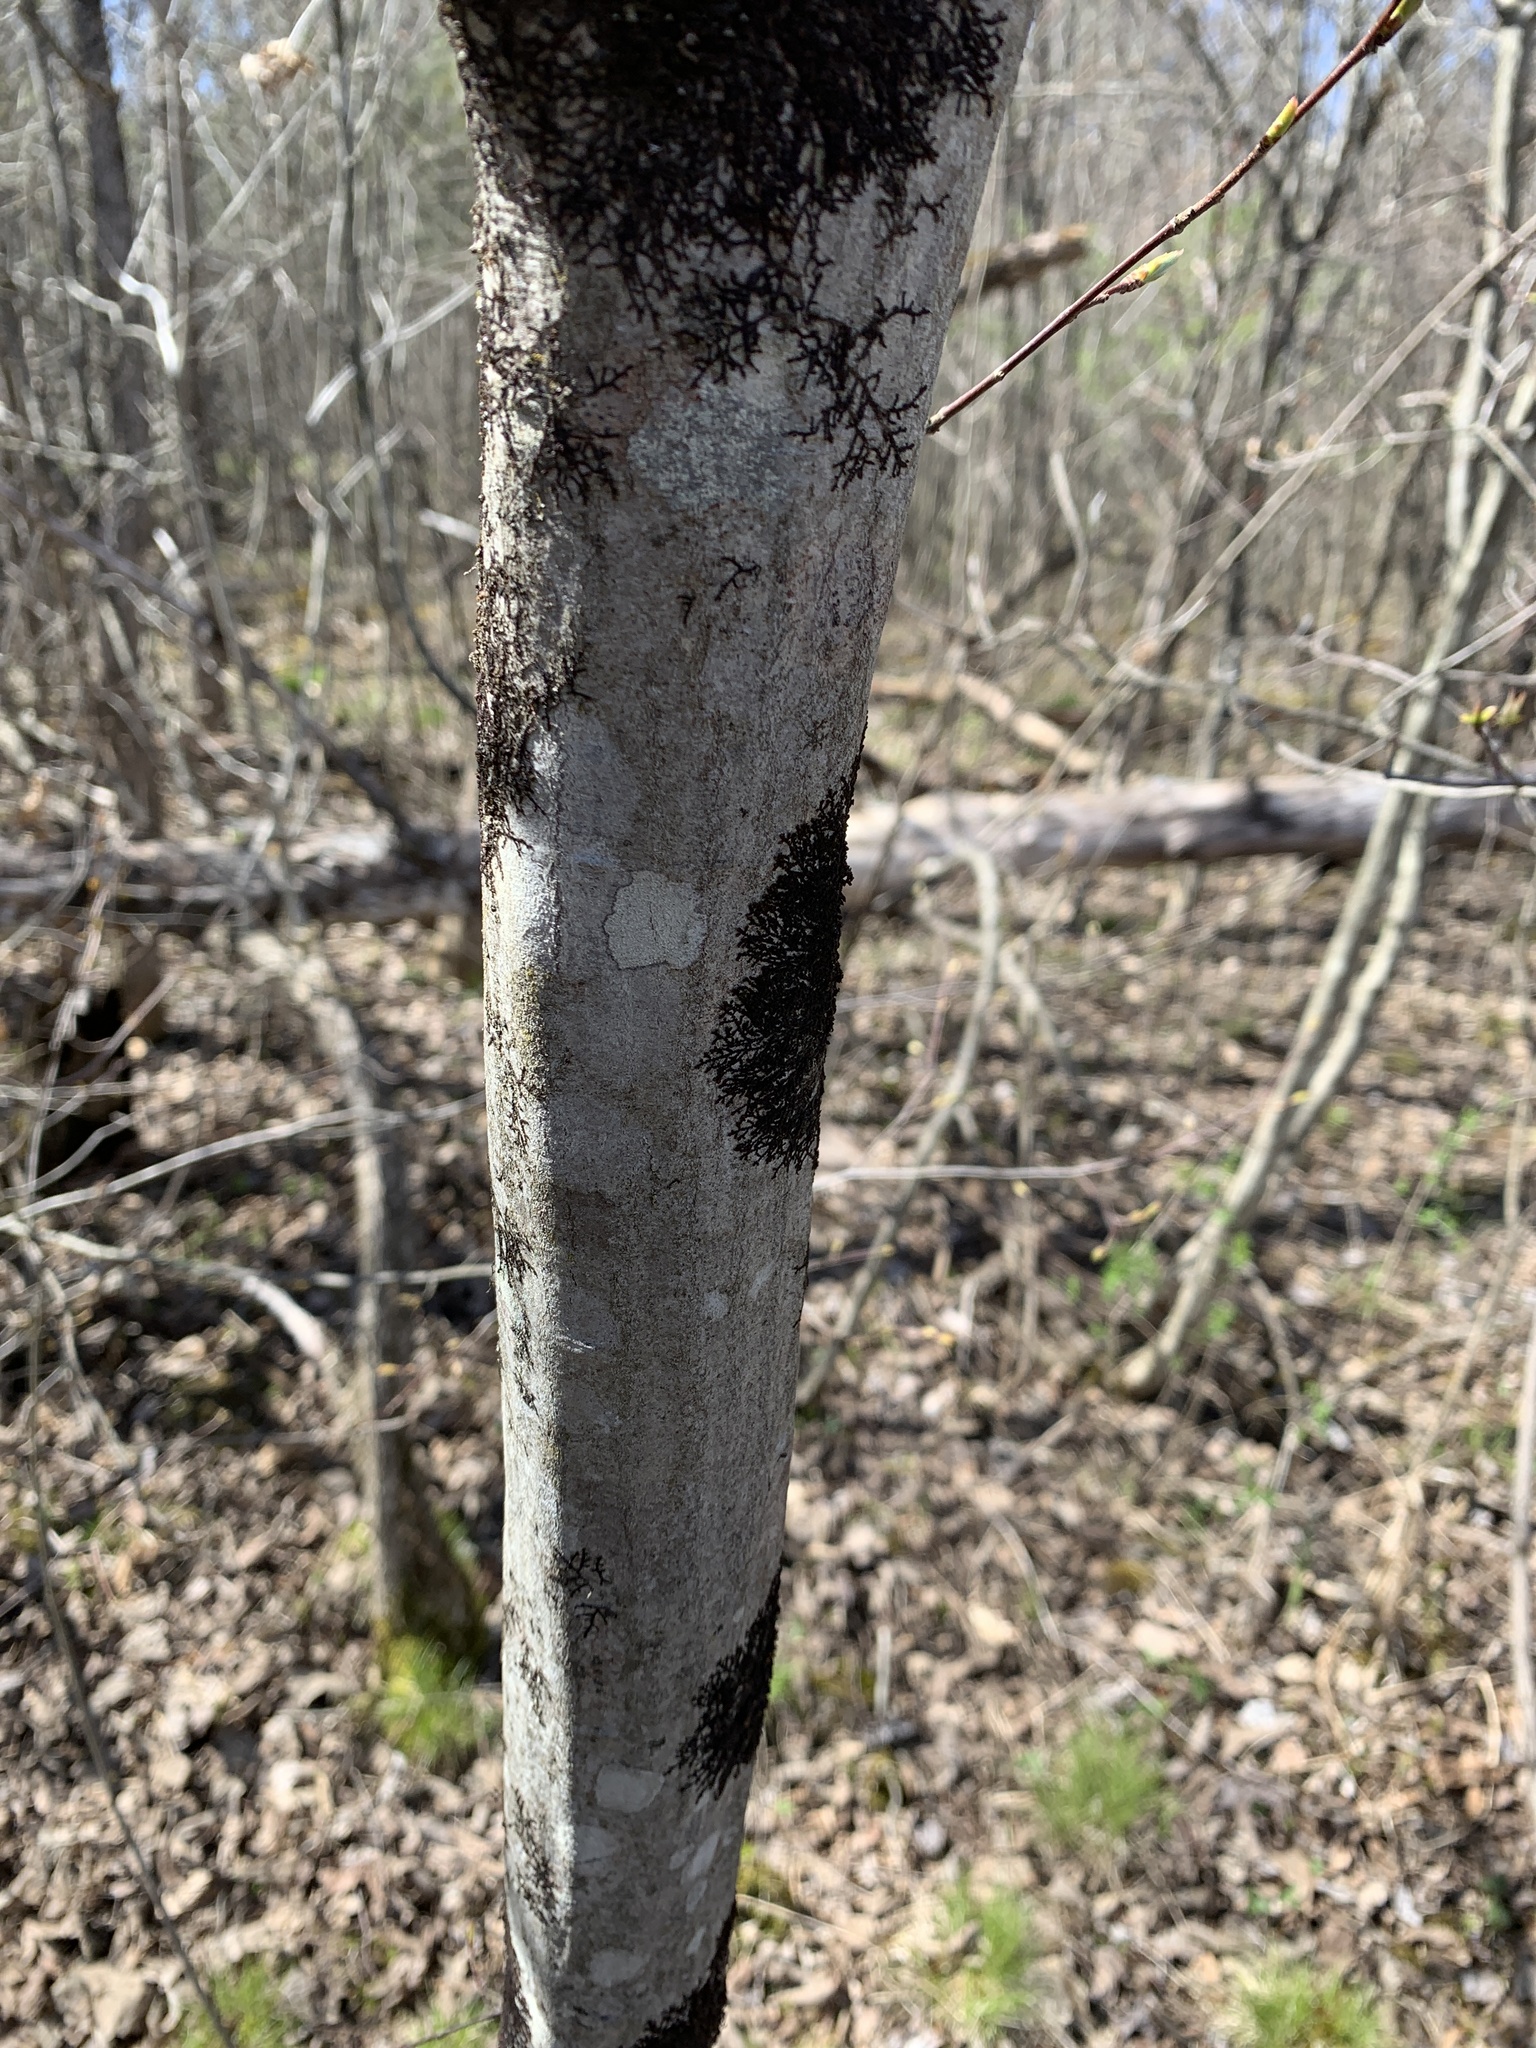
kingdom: Plantae
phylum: Tracheophyta
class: Magnoliopsida
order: Fagales
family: Betulaceae
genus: Carpinus
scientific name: Carpinus caroliniana
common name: American hornbeam
